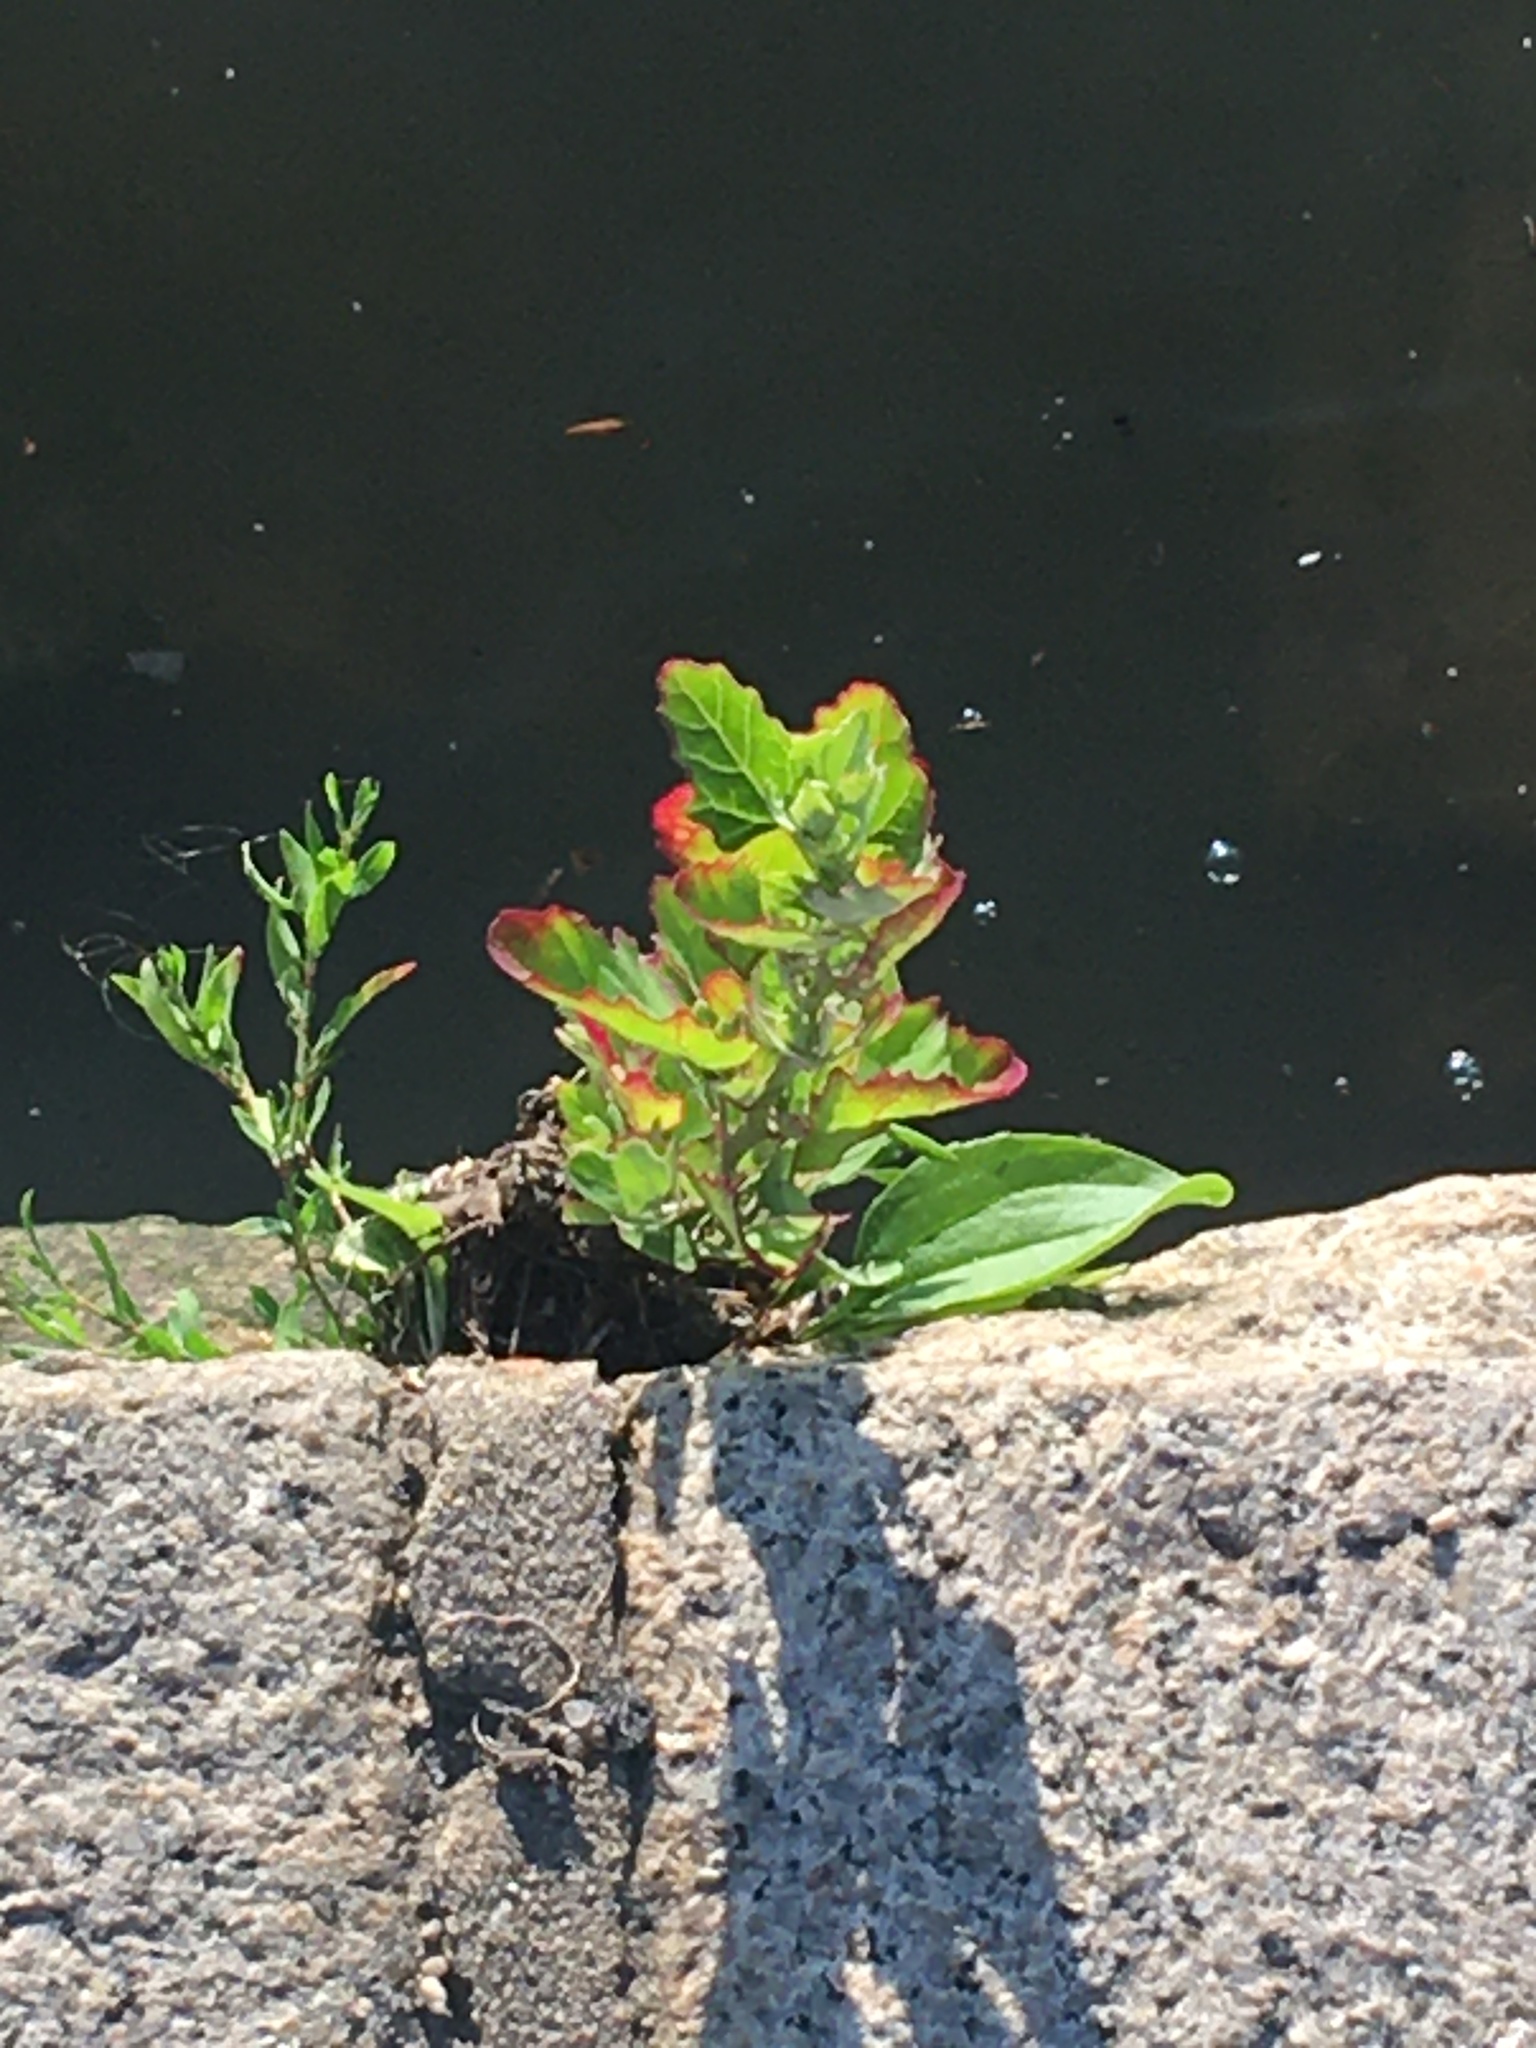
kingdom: Plantae
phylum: Tracheophyta
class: Magnoliopsida
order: Caryophyllales
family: Amaranthaceae
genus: Chenopodium
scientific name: Chenopodium album
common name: Fat-hen
